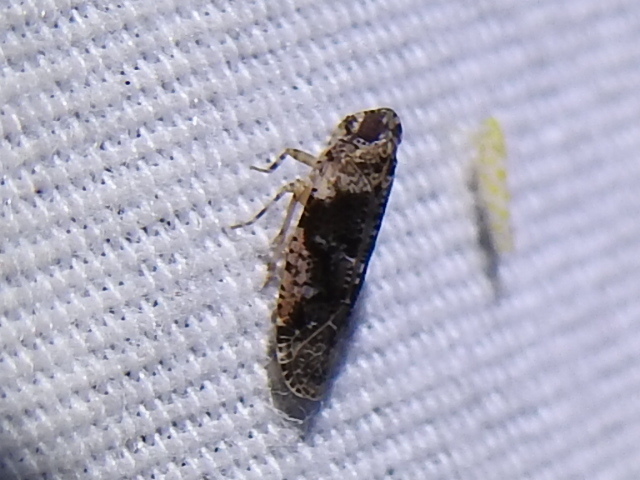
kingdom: Animalia
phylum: Arthropoda
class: Insecta
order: Hemiptera
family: Achilidae
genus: Catonia
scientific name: Catonia nava
